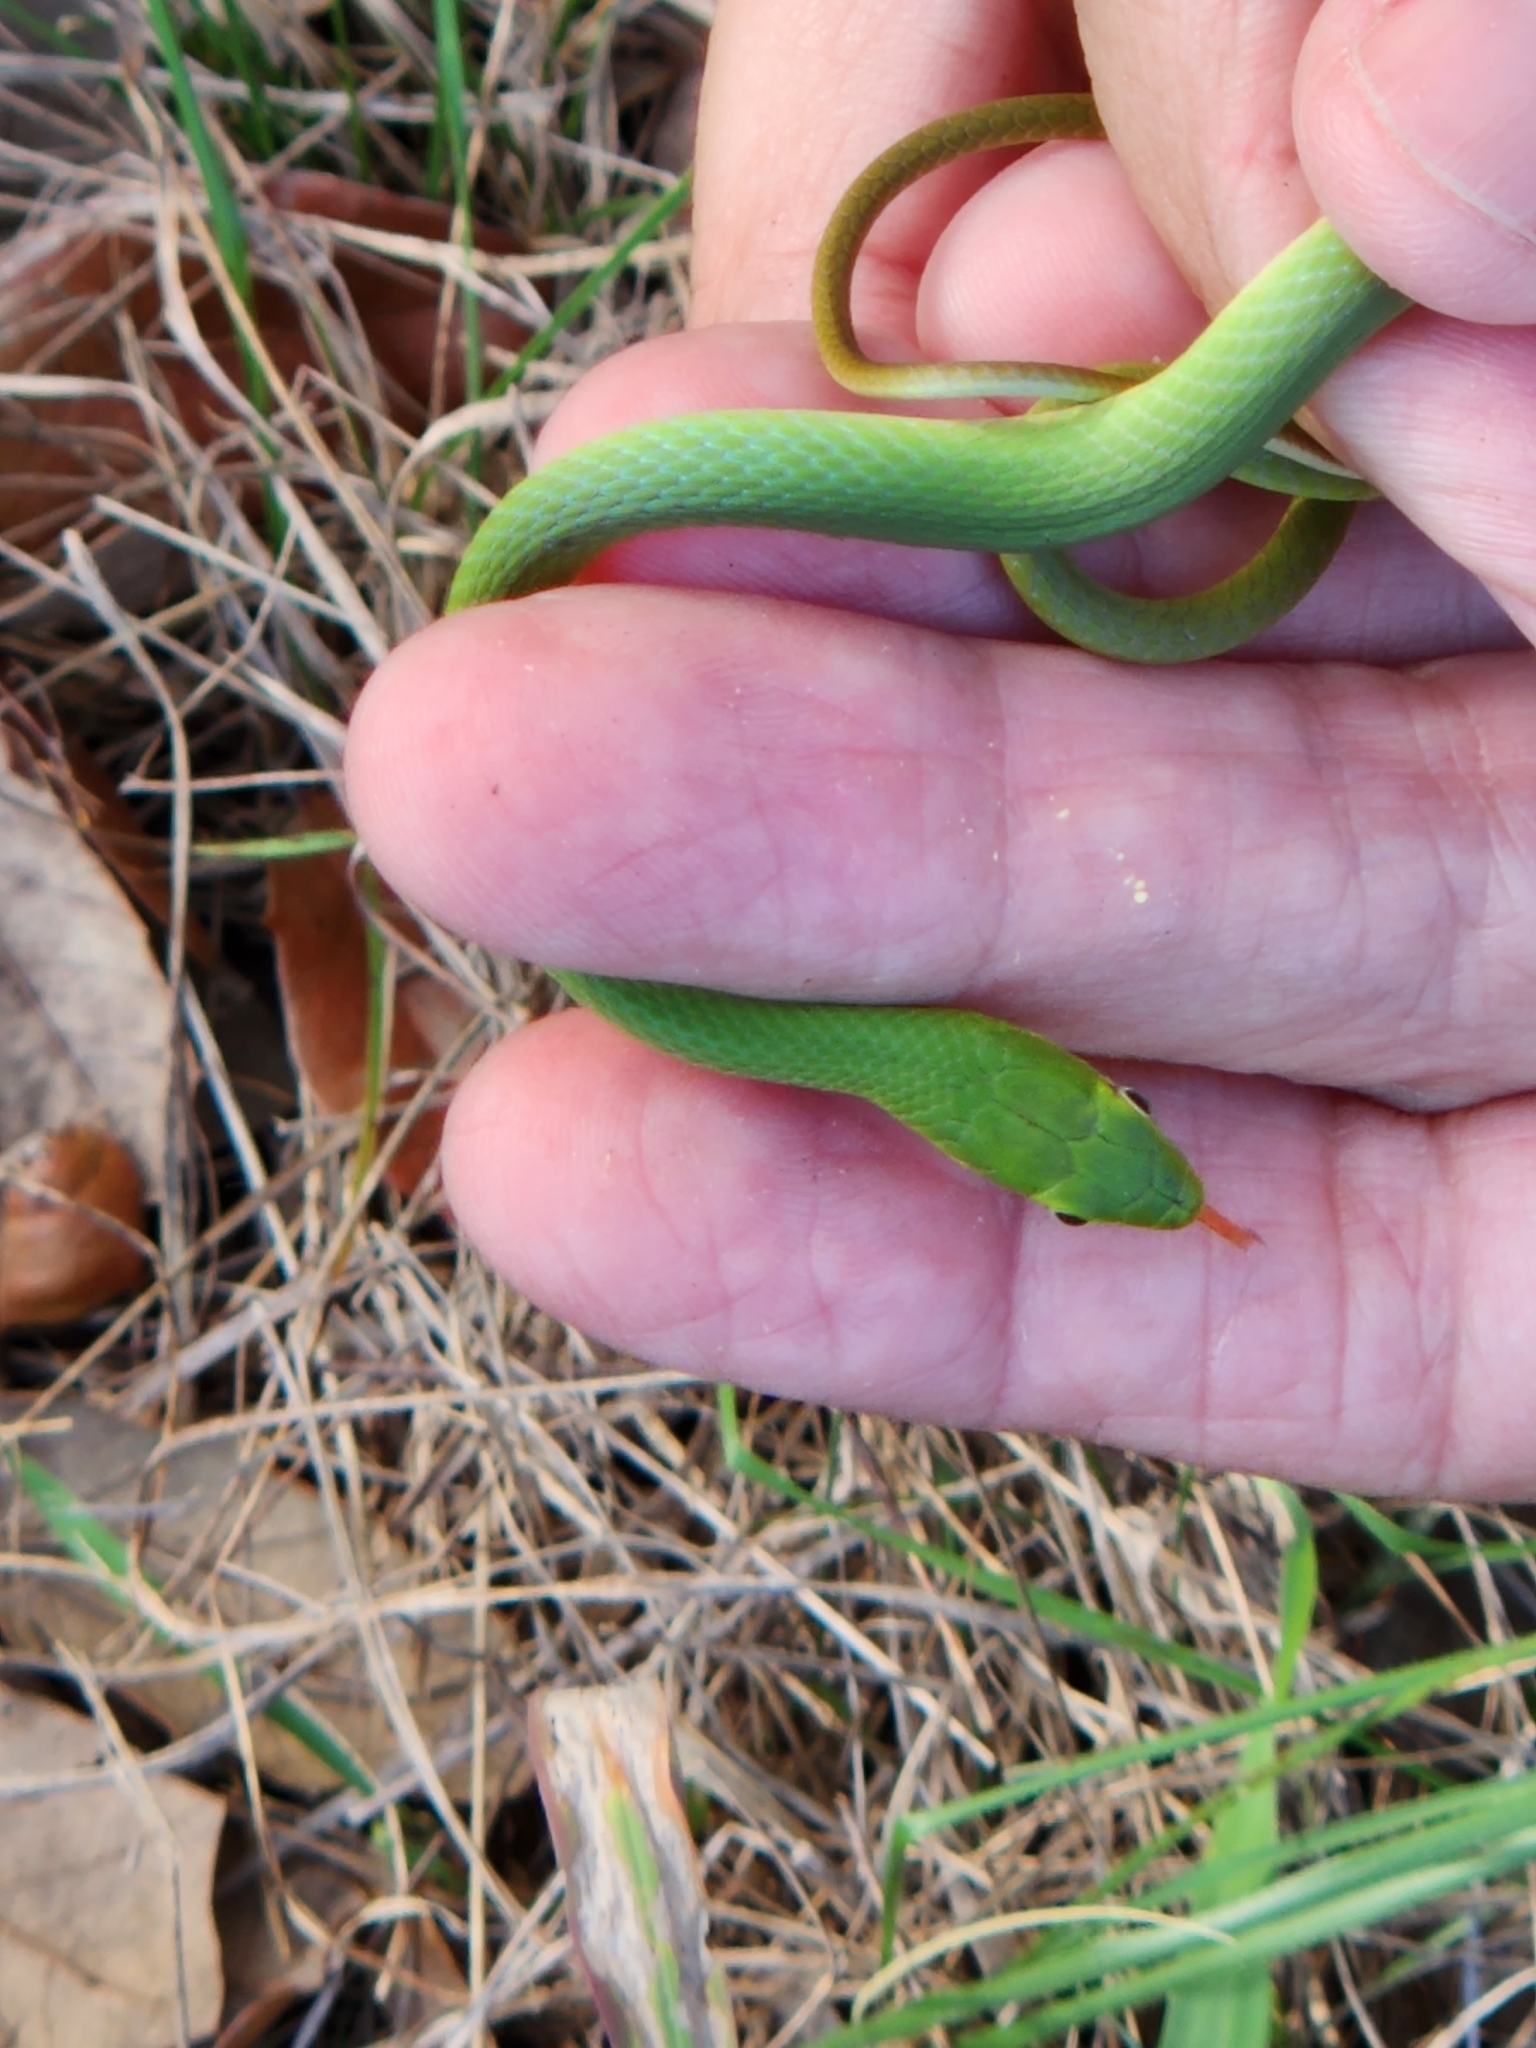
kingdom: Animalia
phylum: Chordata
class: Squamata
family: Colubridae
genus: Opheodrys
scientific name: Opheodrys aestivus
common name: Rough greensnake
